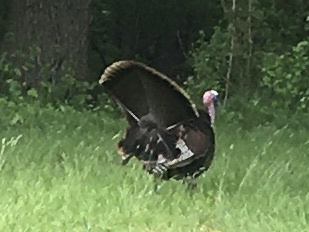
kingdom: Animalia
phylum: Chordata
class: Aves
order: Galliformes
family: Phasianidae
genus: Meleagris
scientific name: Meleagris gallopavo
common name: Wild turkey
